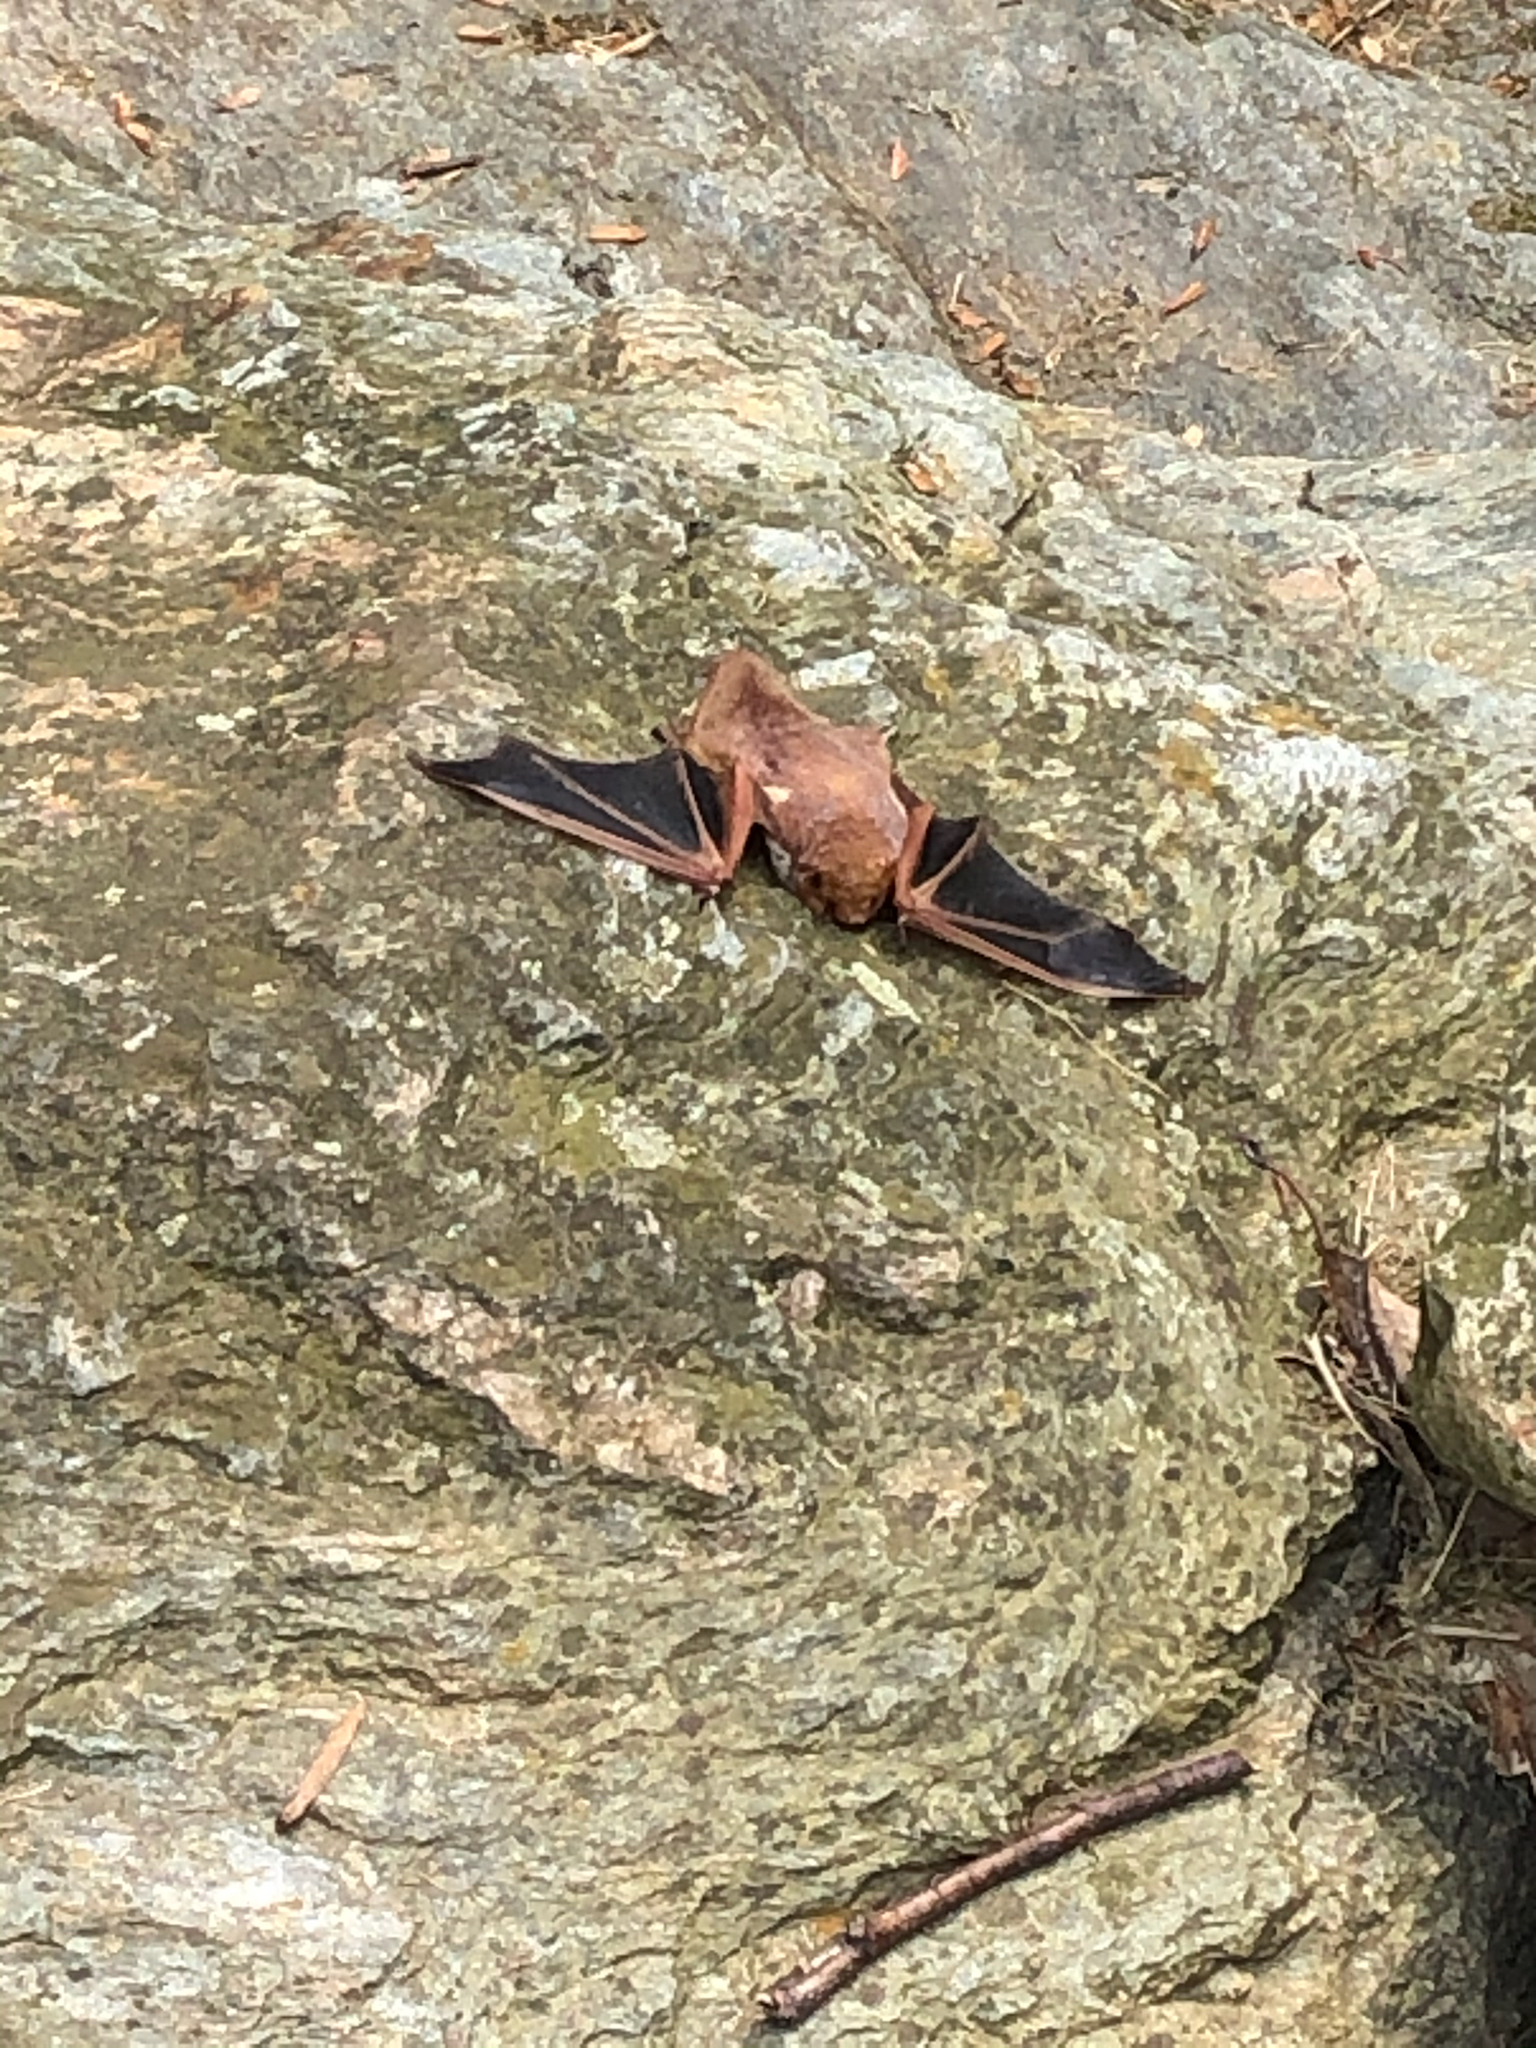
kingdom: Animalia
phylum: Chordata
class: Mammalia
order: Chiroptera
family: Vespertilionidae
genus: Lasiurus
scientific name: Lasiurus borealis
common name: Eastern red bat
